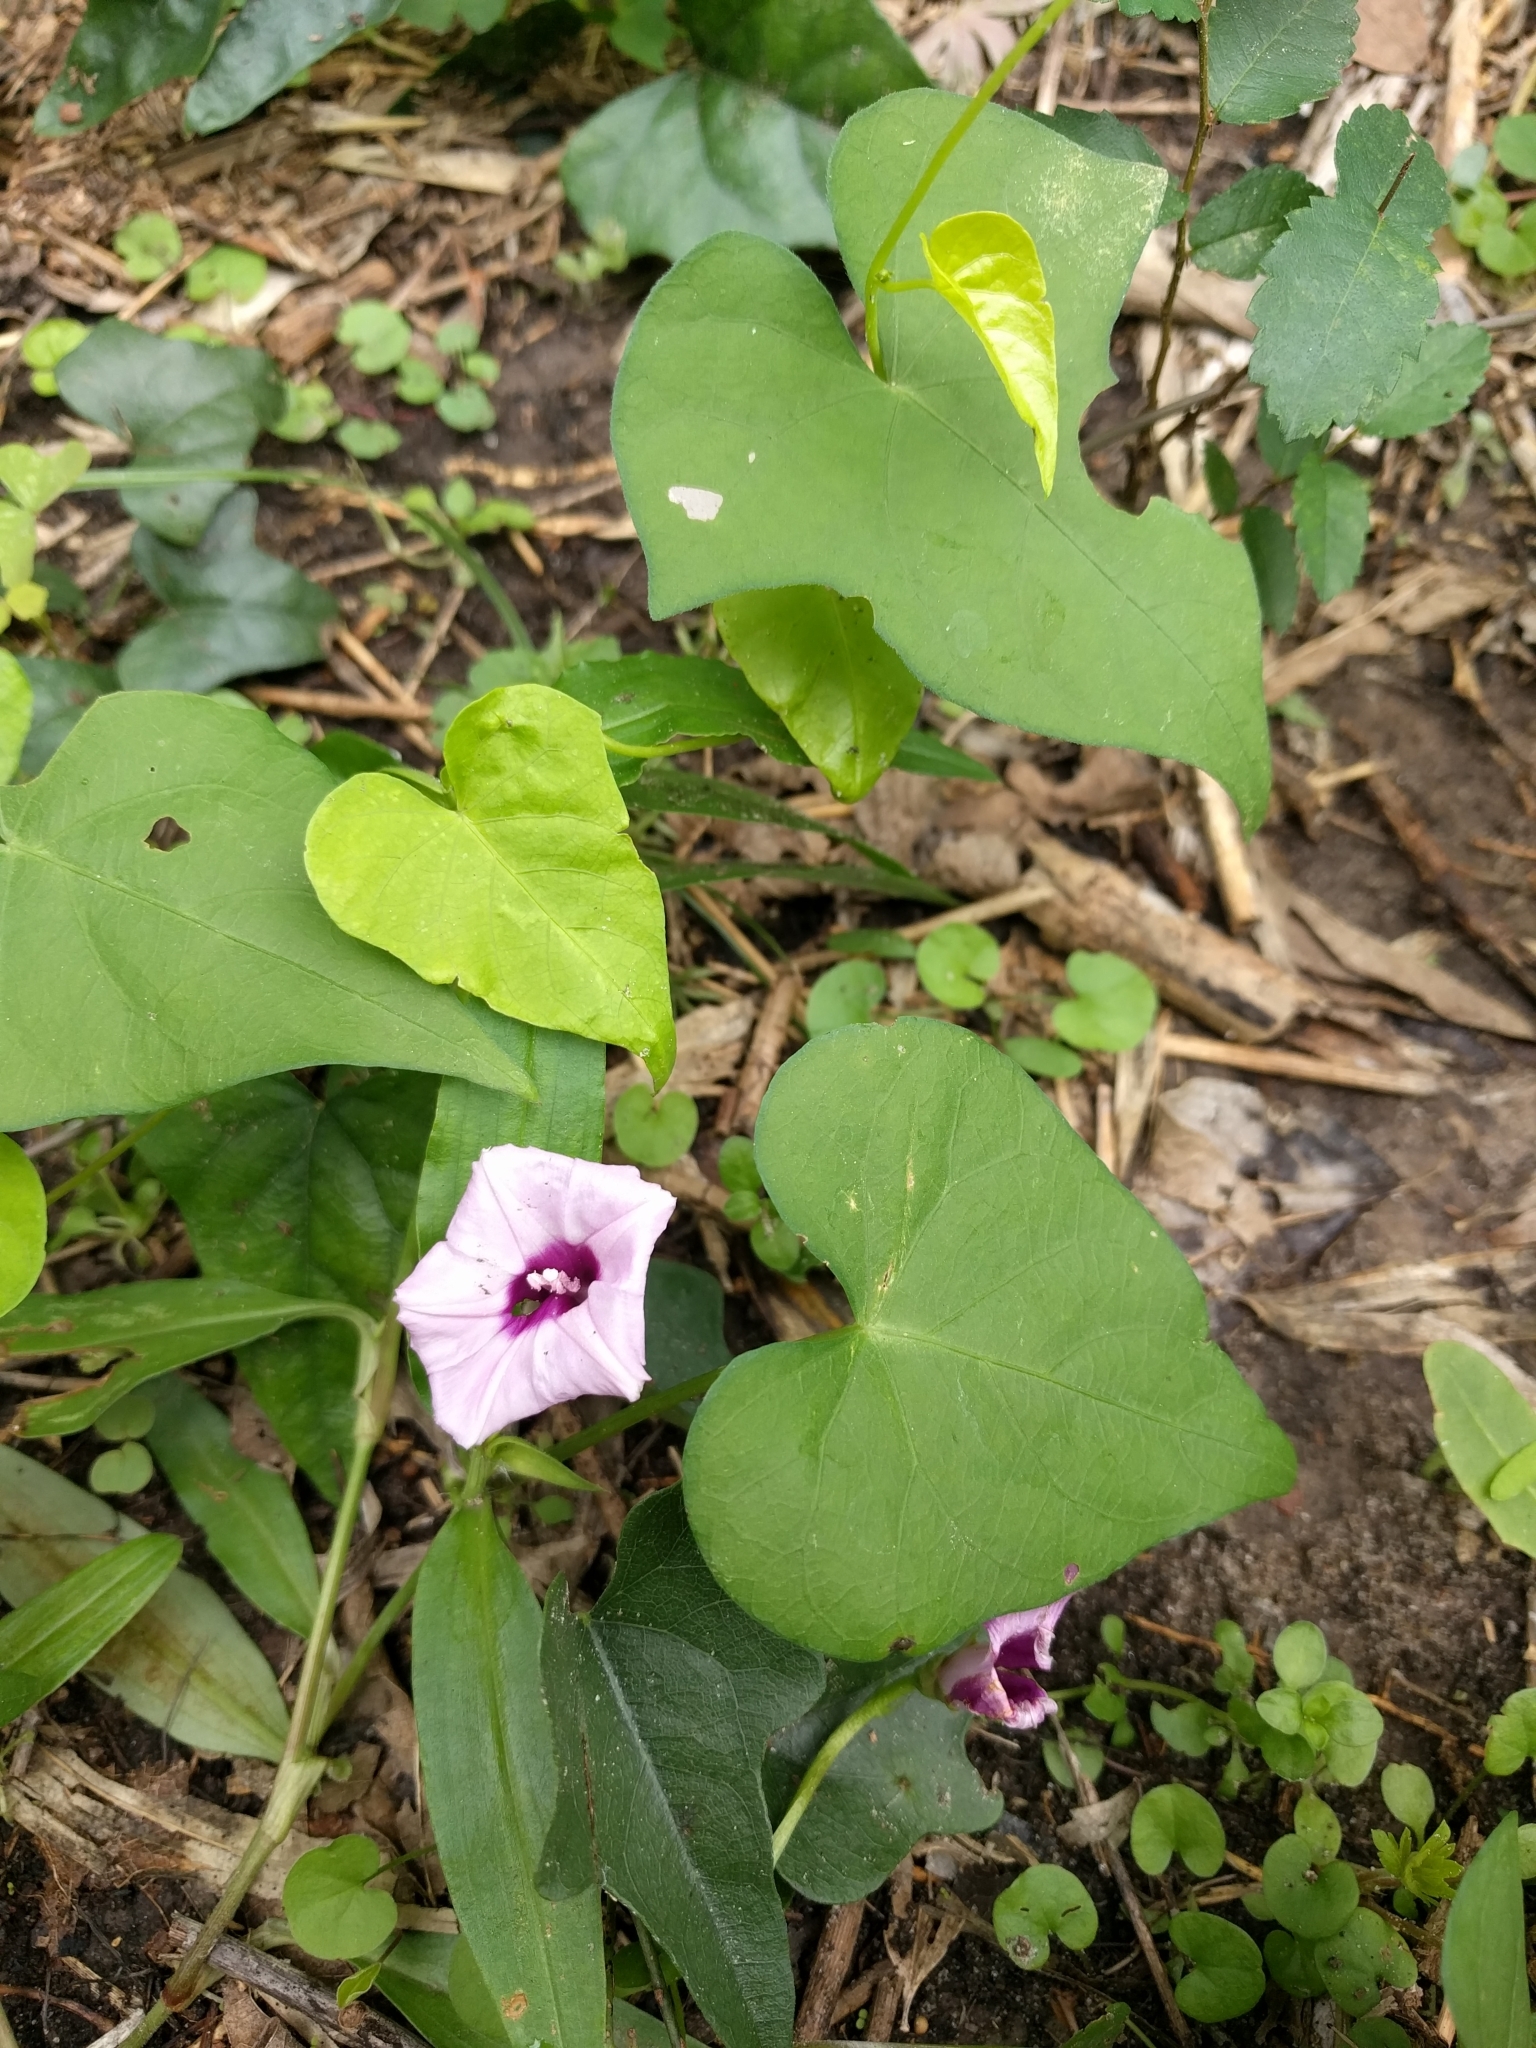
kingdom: Plantae
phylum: Tracheophyta
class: Magnoliopsida
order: Solanales
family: Convolvulaceae
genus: Ipomoea
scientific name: Ipomoea cordatotriloba
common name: Cotton morning glory
